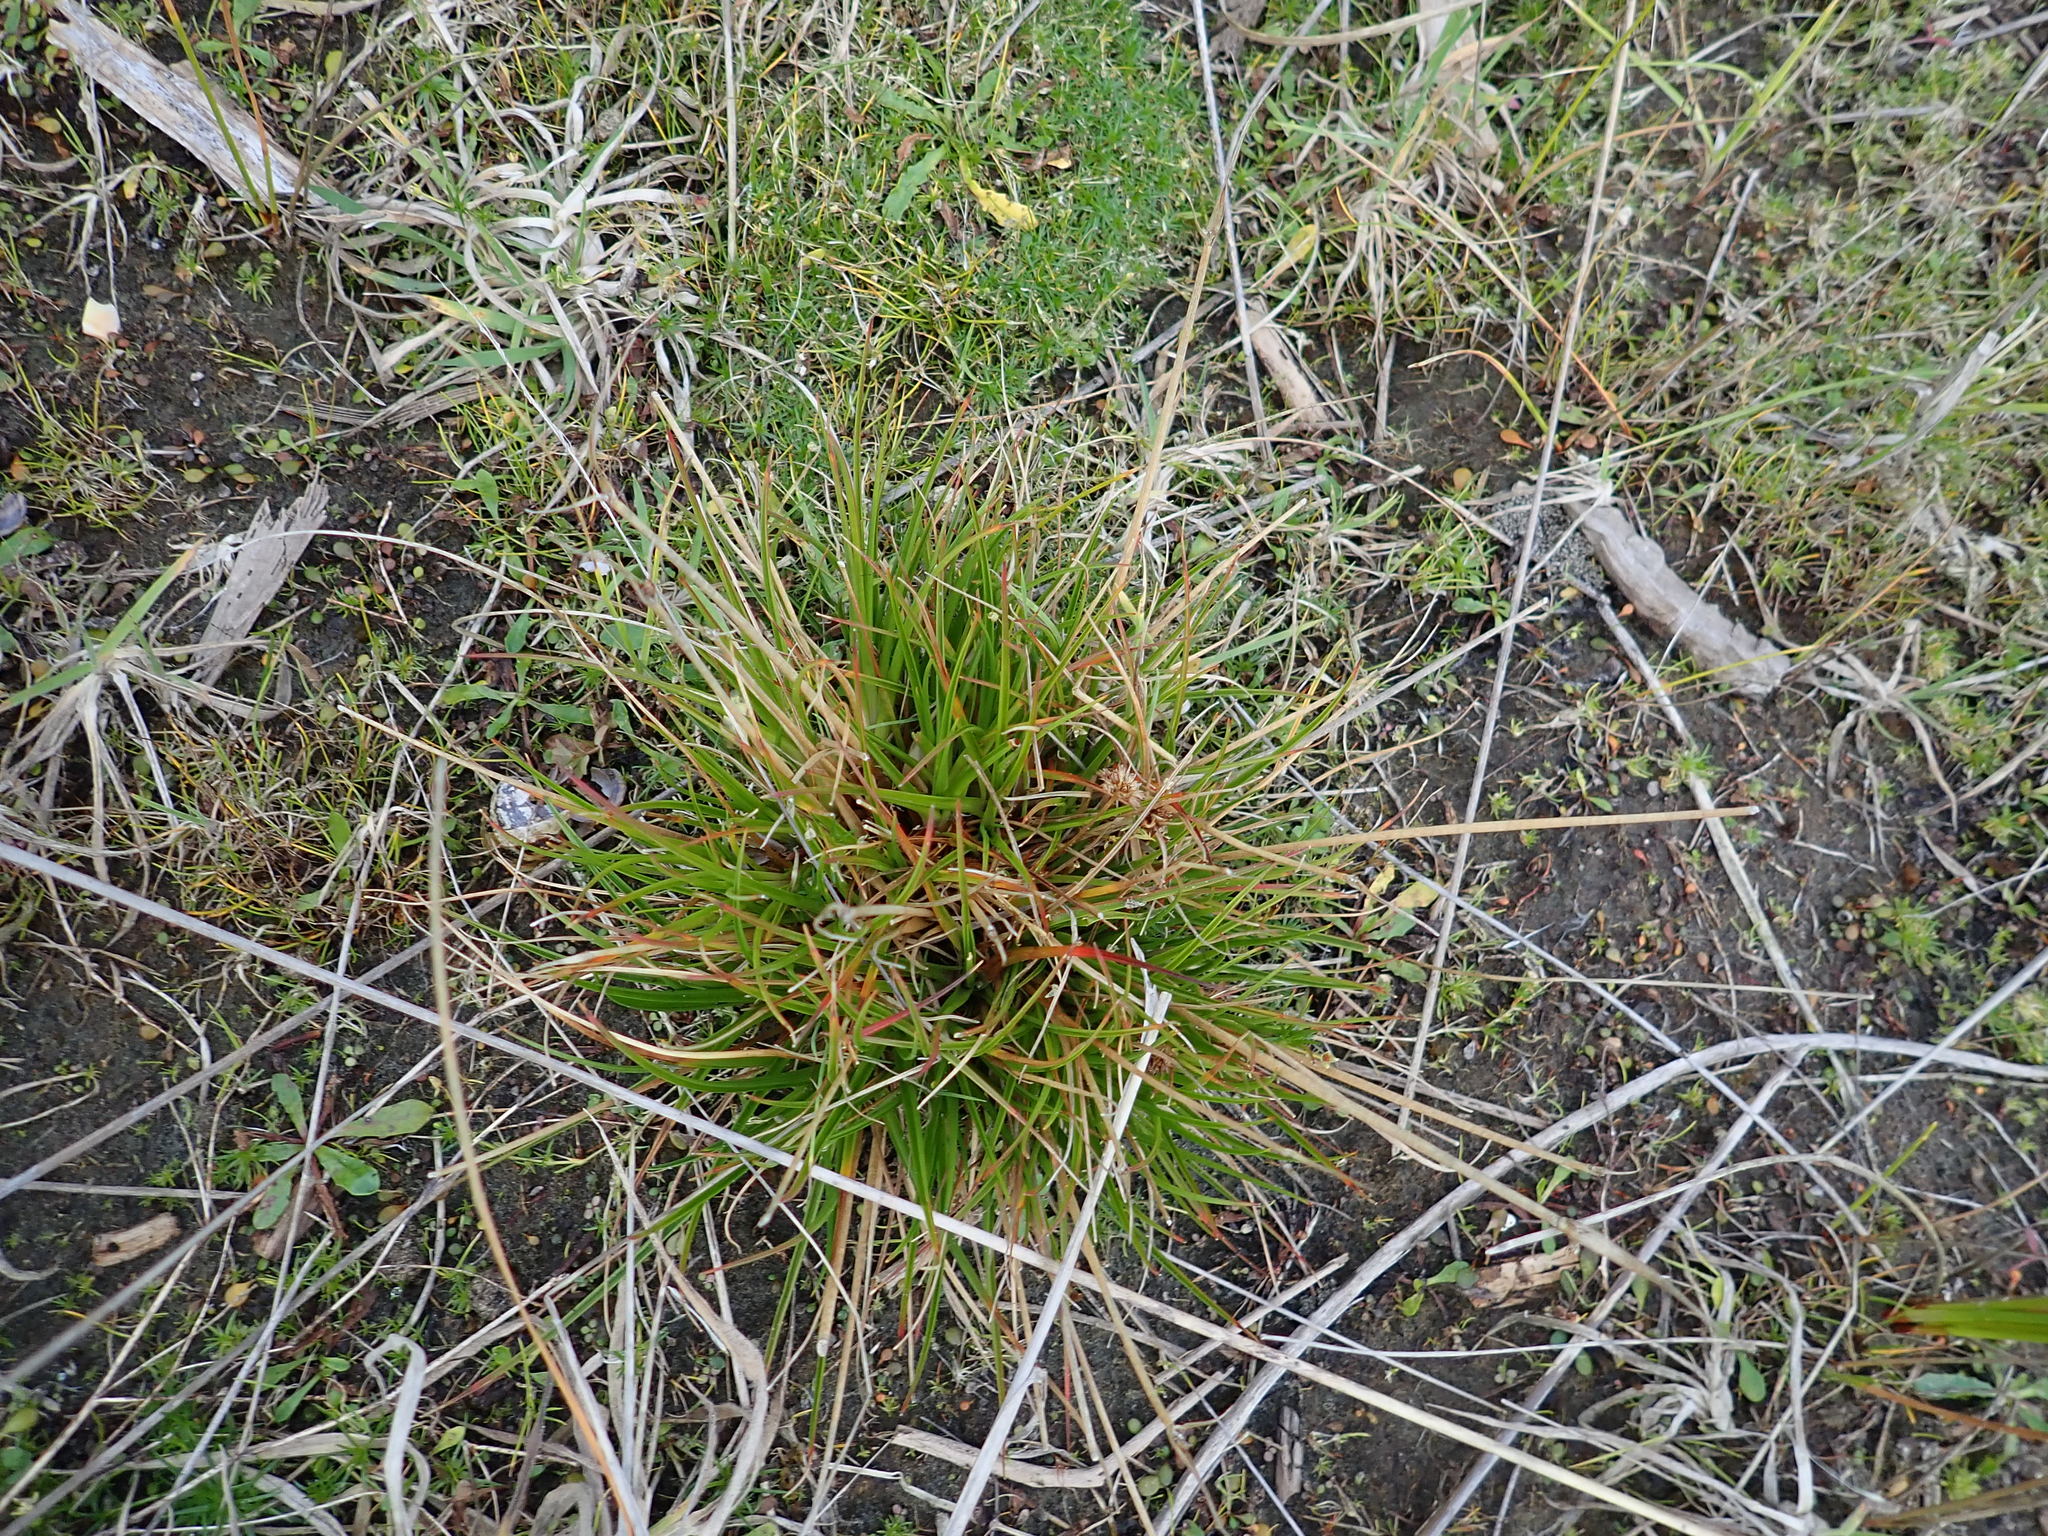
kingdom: Plantae
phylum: Tracheophyta
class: Liliopsida
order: Poales
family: Juncaceae
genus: Juncus
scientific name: Juncus caespiticius
